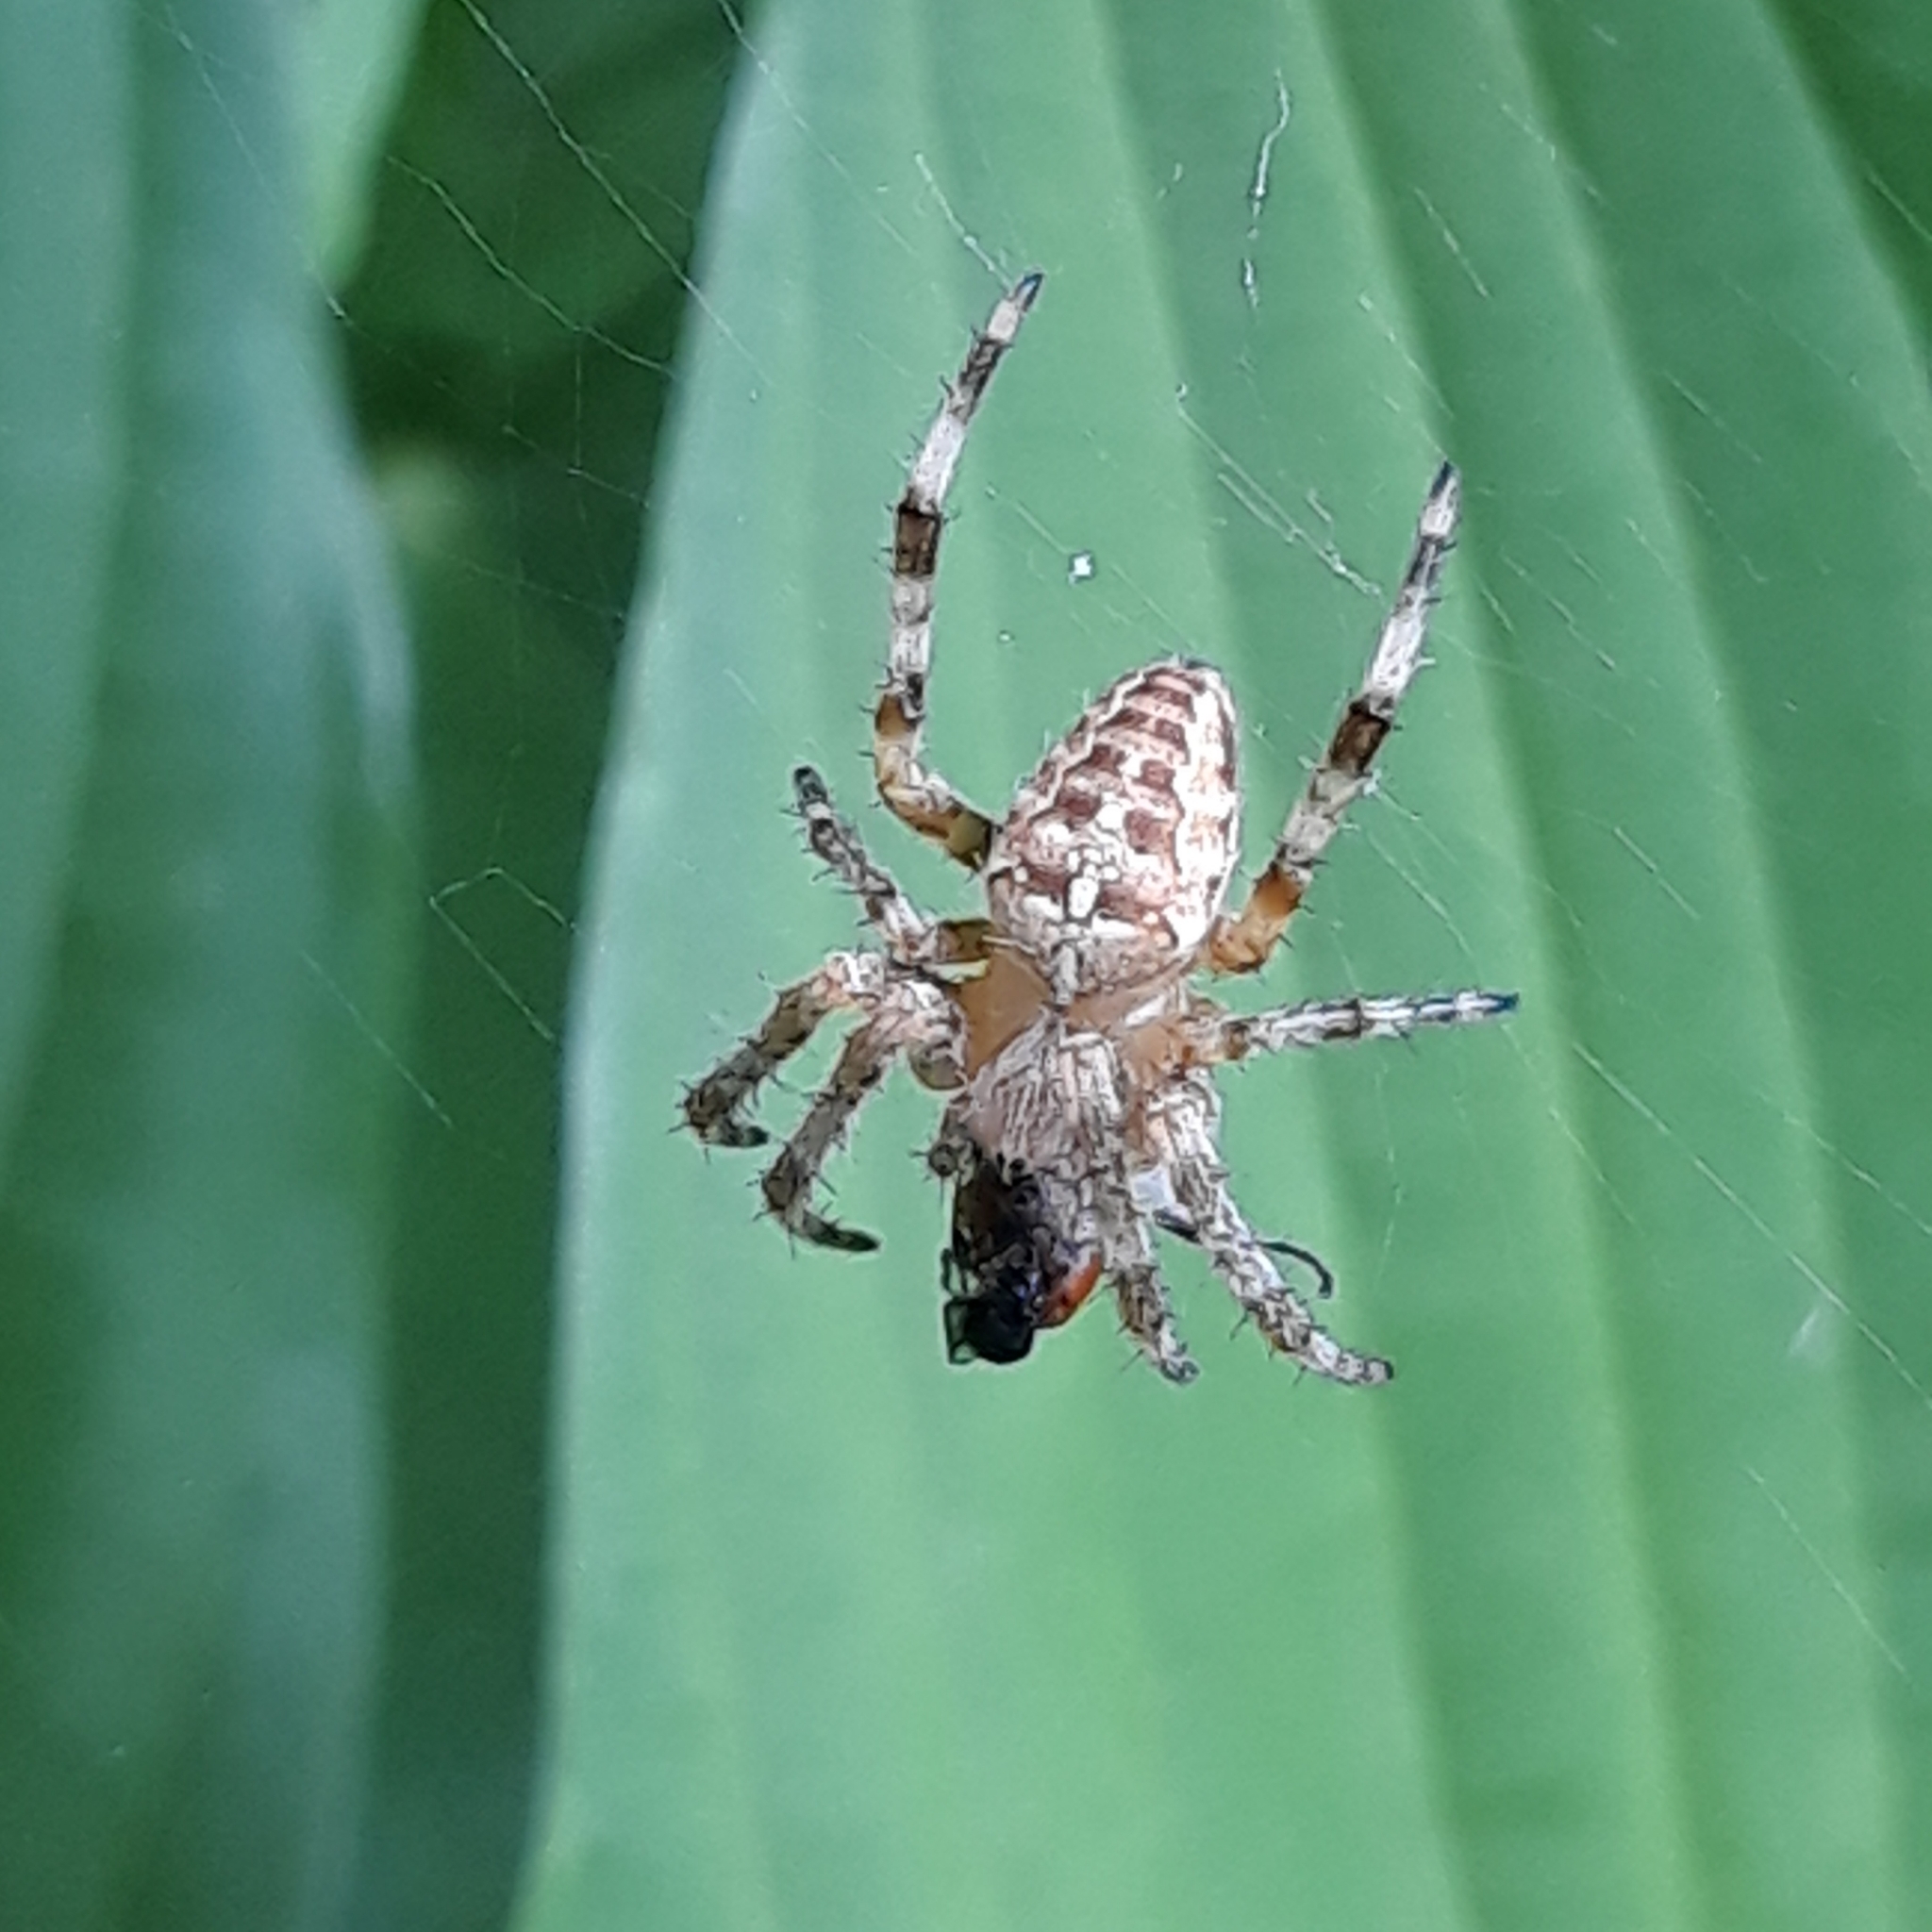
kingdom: Animalia
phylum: Arthropoda
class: Arachnida
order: Araneae
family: Araneidae
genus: Araneus
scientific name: Araneus diadematus
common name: Cross orbweaver
